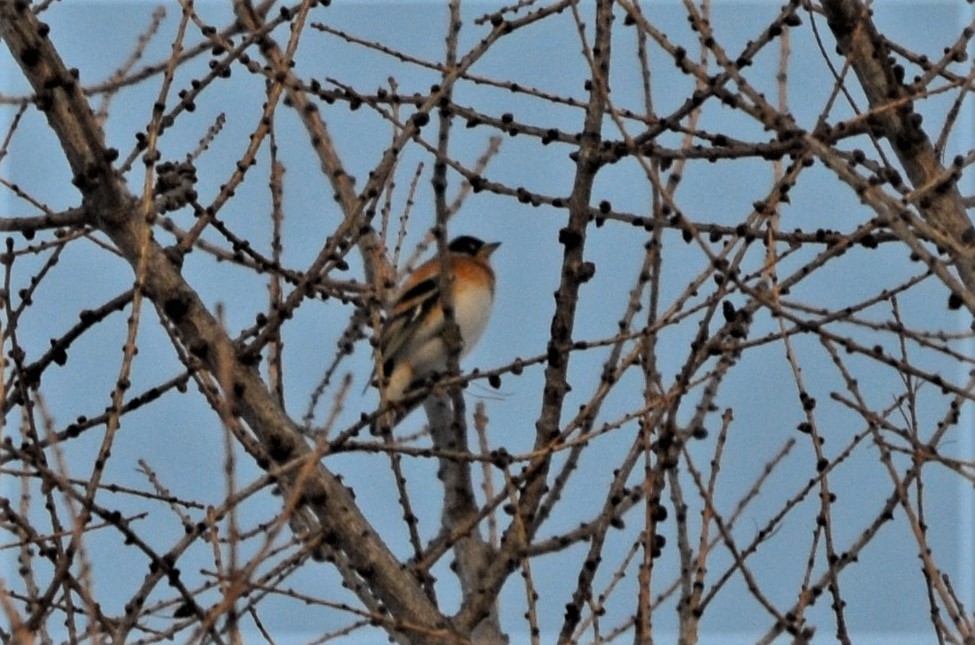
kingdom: Animalia
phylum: Chordata
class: Aves
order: Passeriformes
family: Fringillidae
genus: Fringilla
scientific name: Fringilla montifringilla
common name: Brambling
